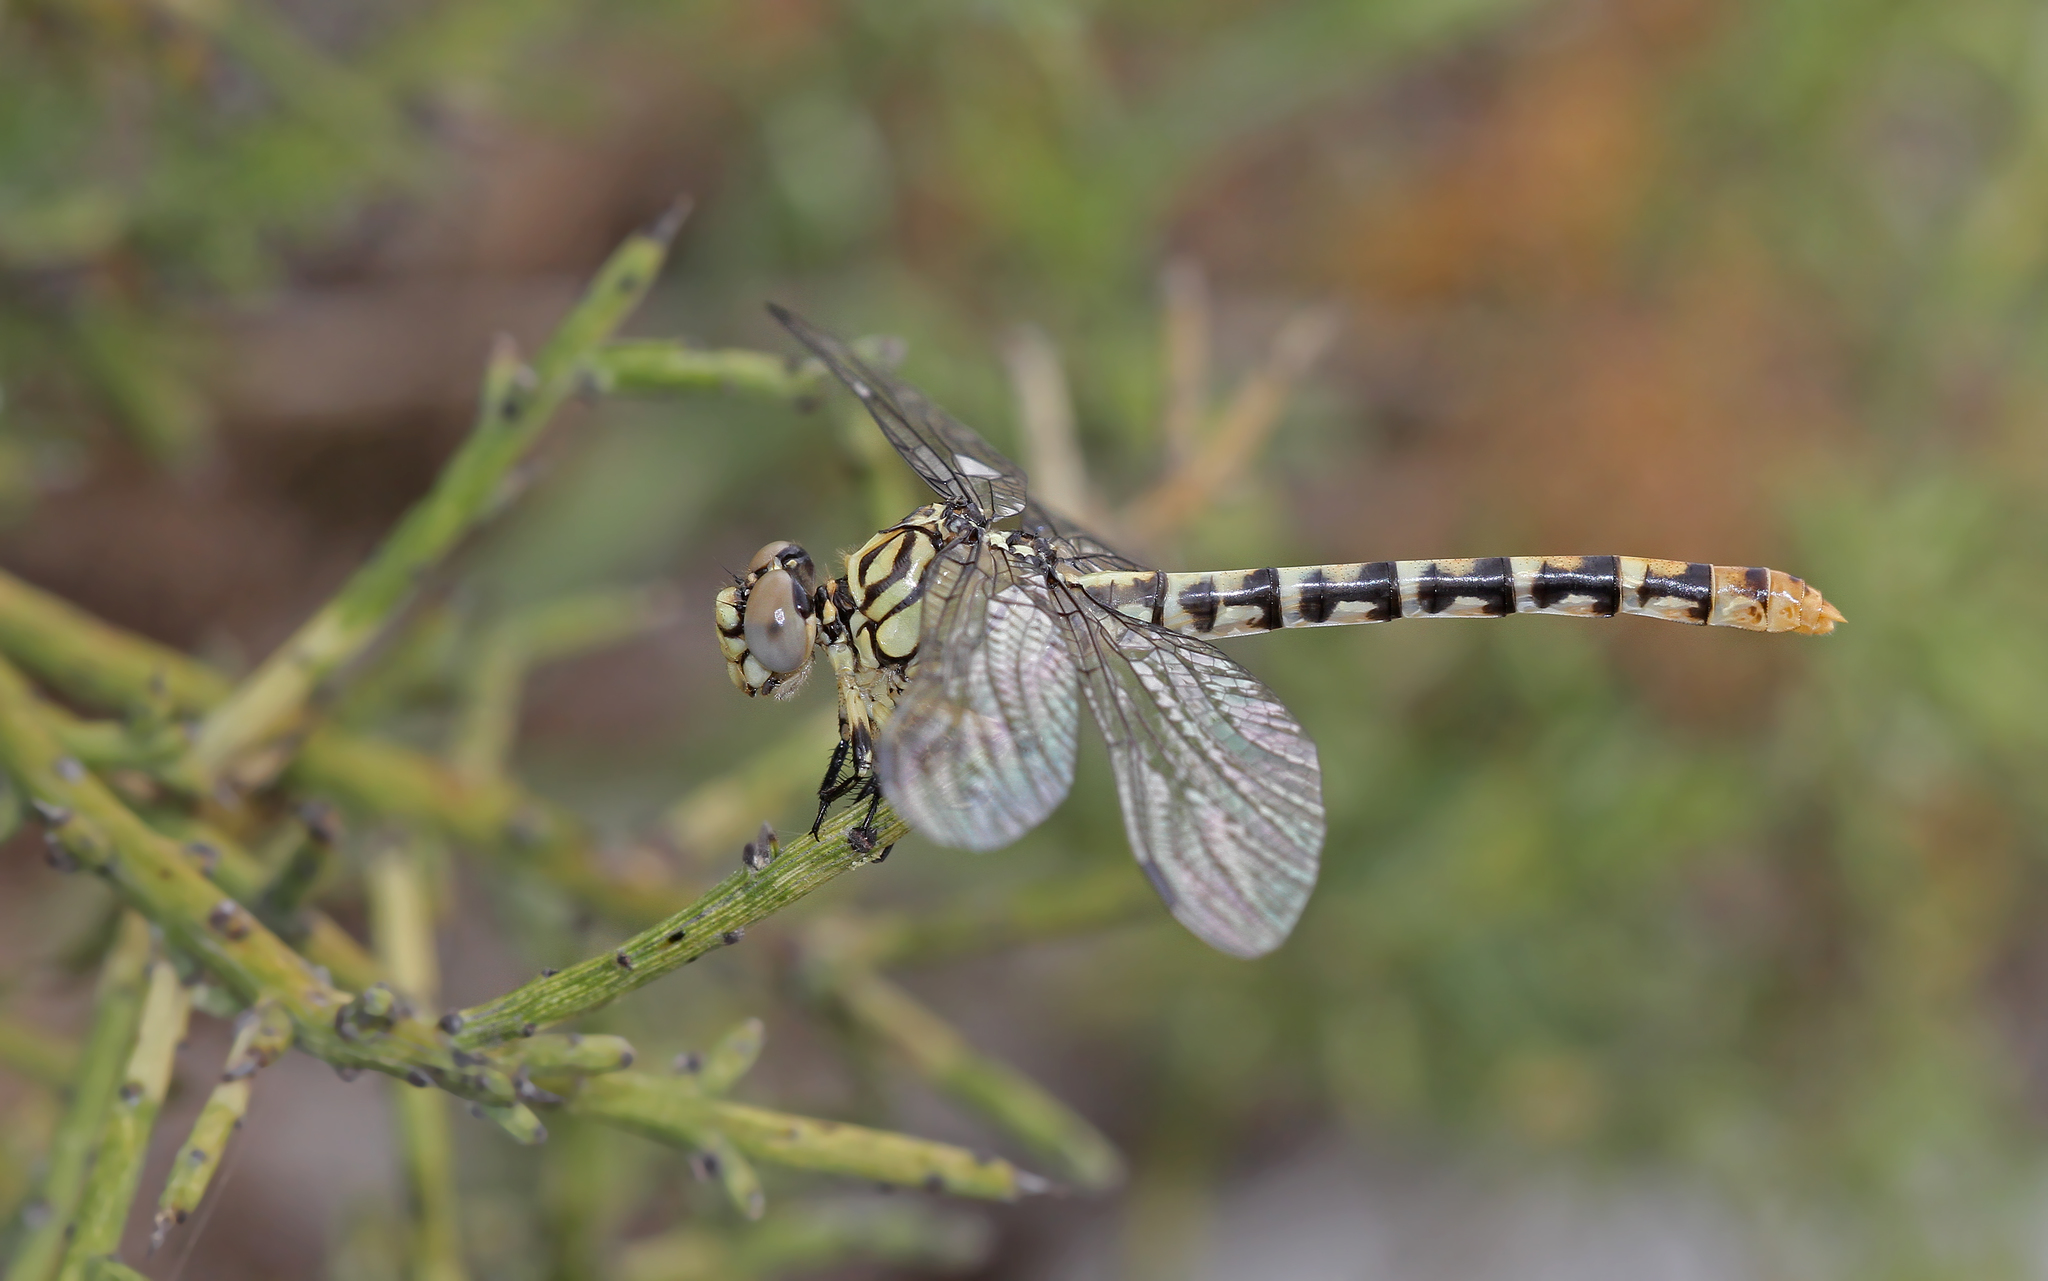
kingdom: Animalia
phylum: Arthropoda
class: Insecta
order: Odonata
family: Gomphidae
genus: Onychogomphus
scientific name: Onychogomphus forcipatus
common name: Small pincertail
